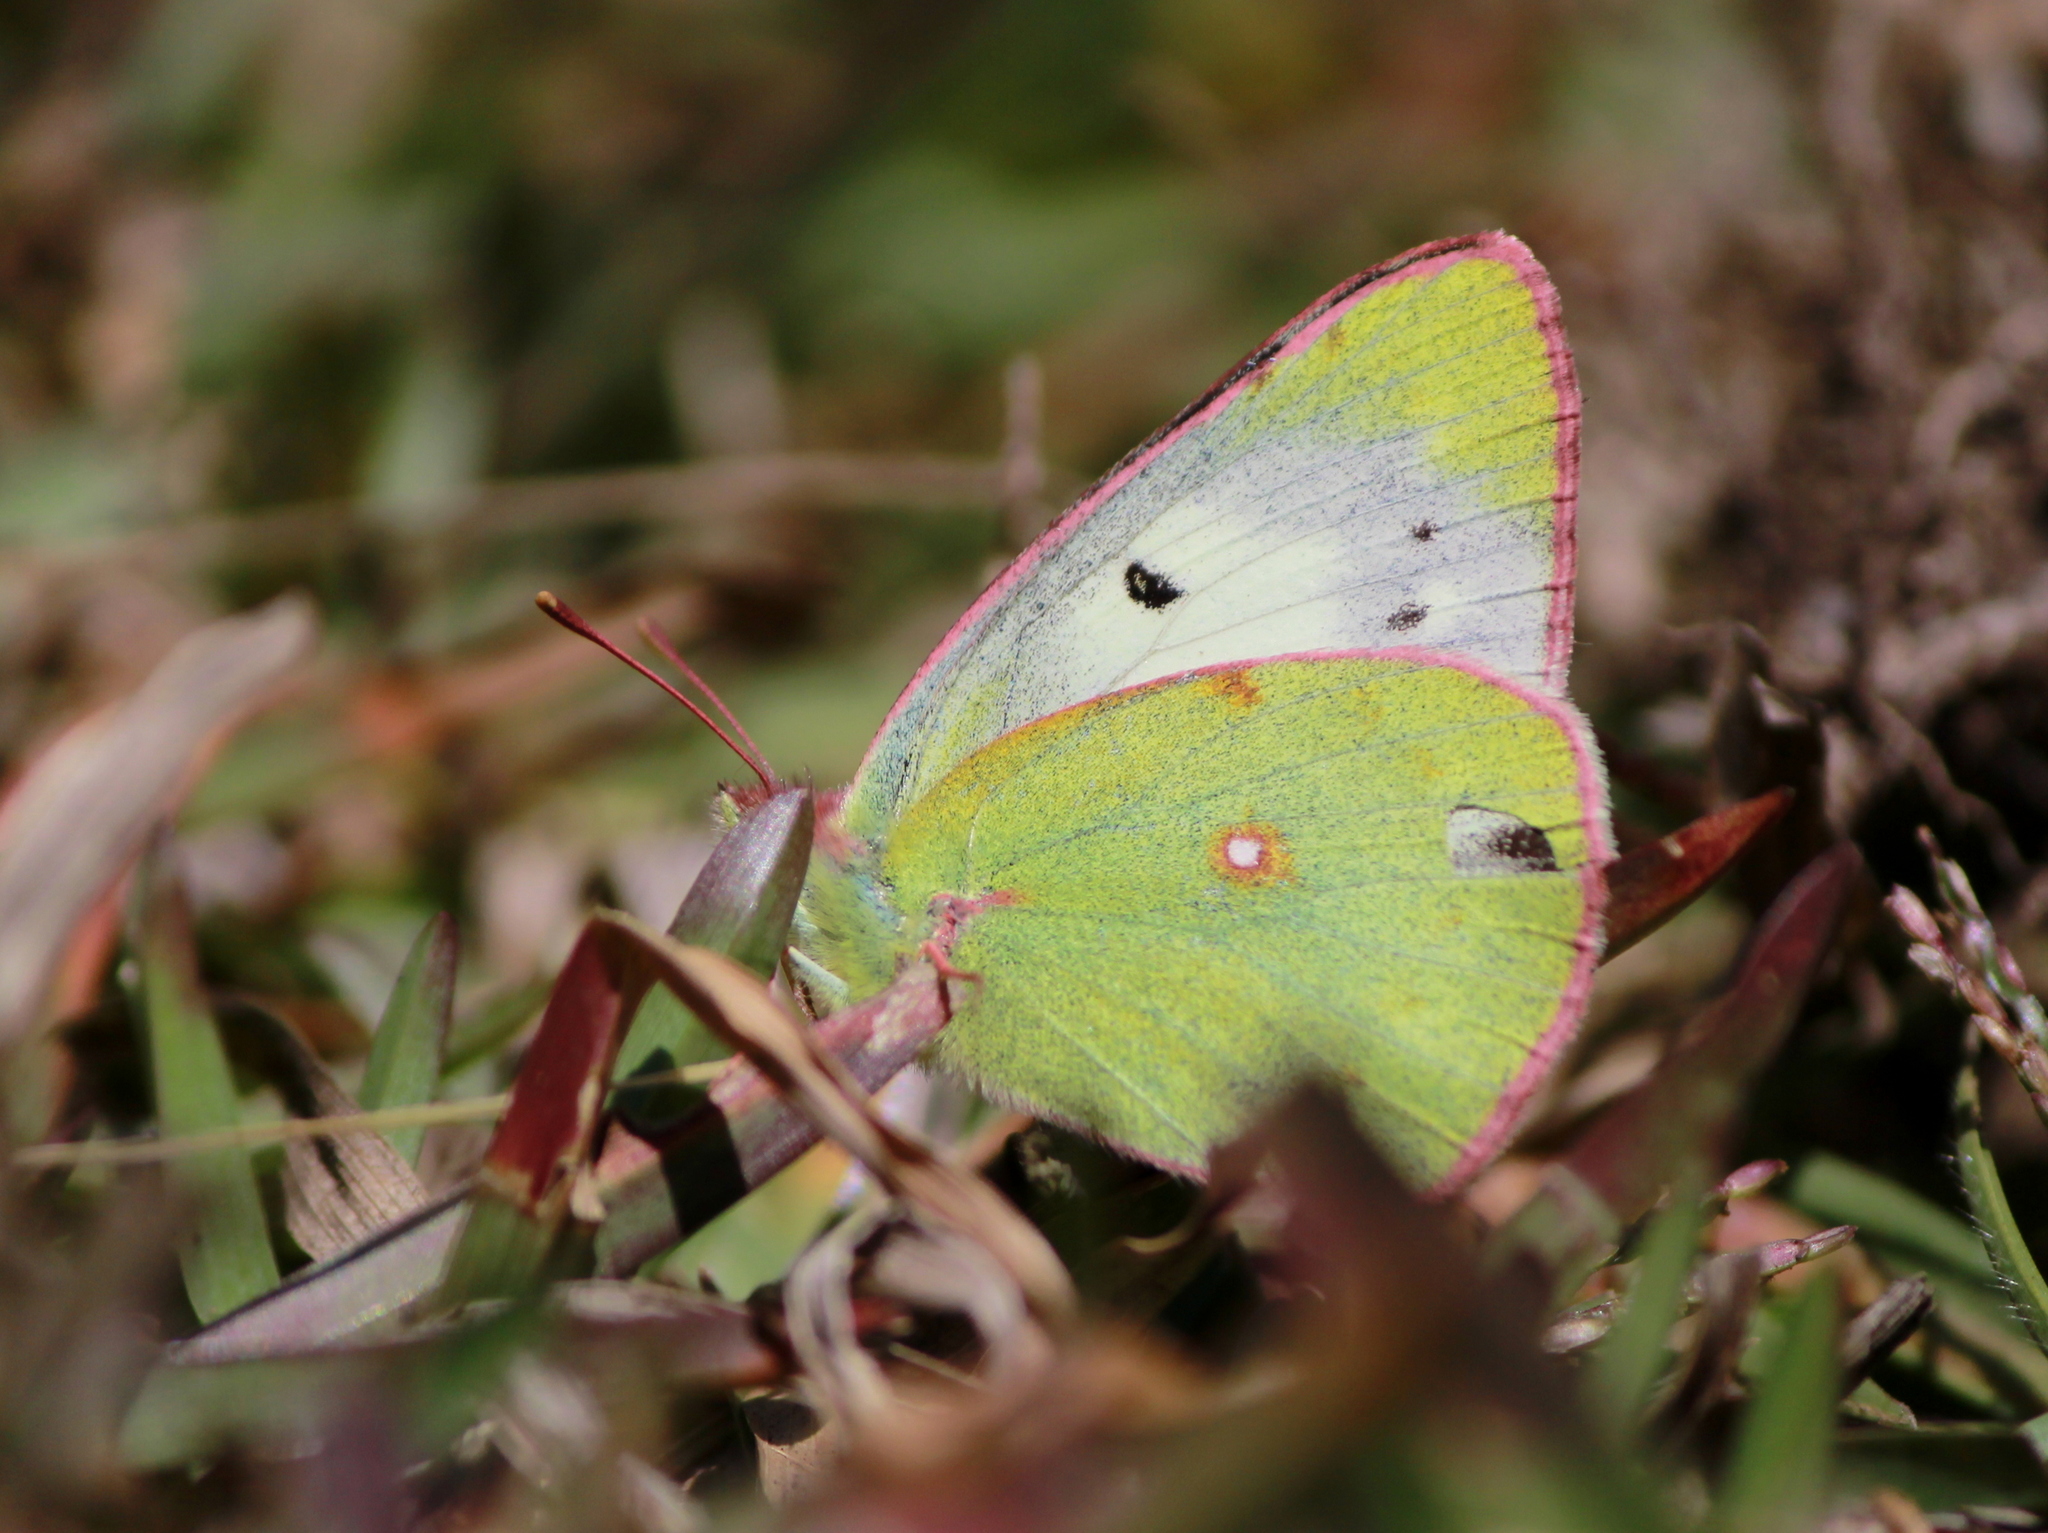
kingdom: Animalia
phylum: Arthropoda
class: Insecta
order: Lepidoptera
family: Pieridae
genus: Colias
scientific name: Colias nilagiriensis
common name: Nilgiri clouded yellow
